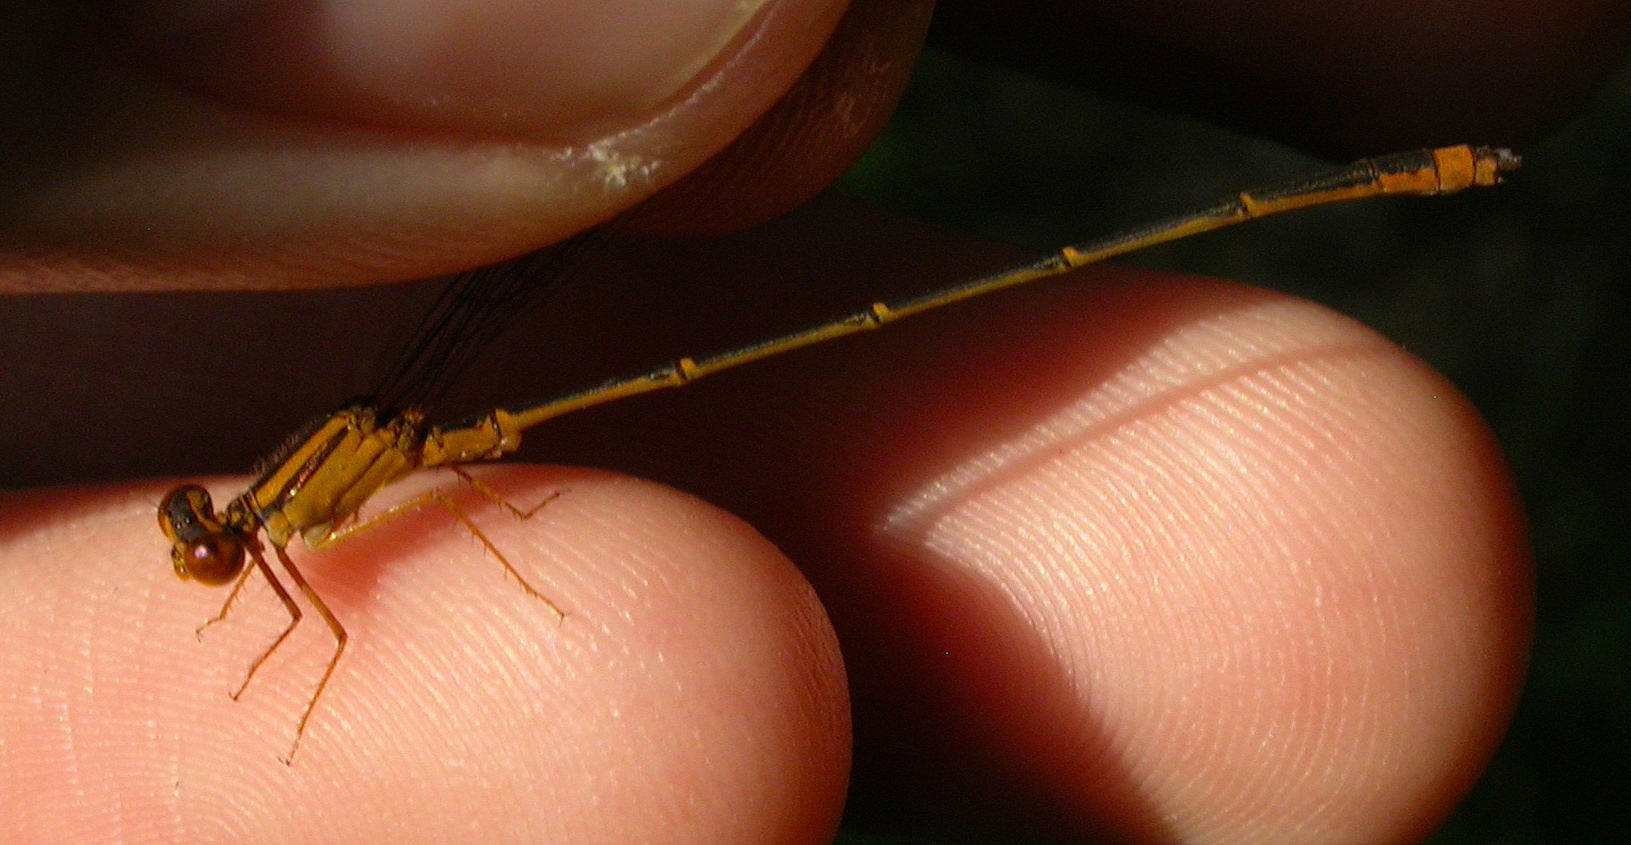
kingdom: Animalia
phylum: Arthropoda
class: Insecta
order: Odonata
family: Coenagrionidae
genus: Enallagma
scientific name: Enallagma signatum
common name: Orange bluet
